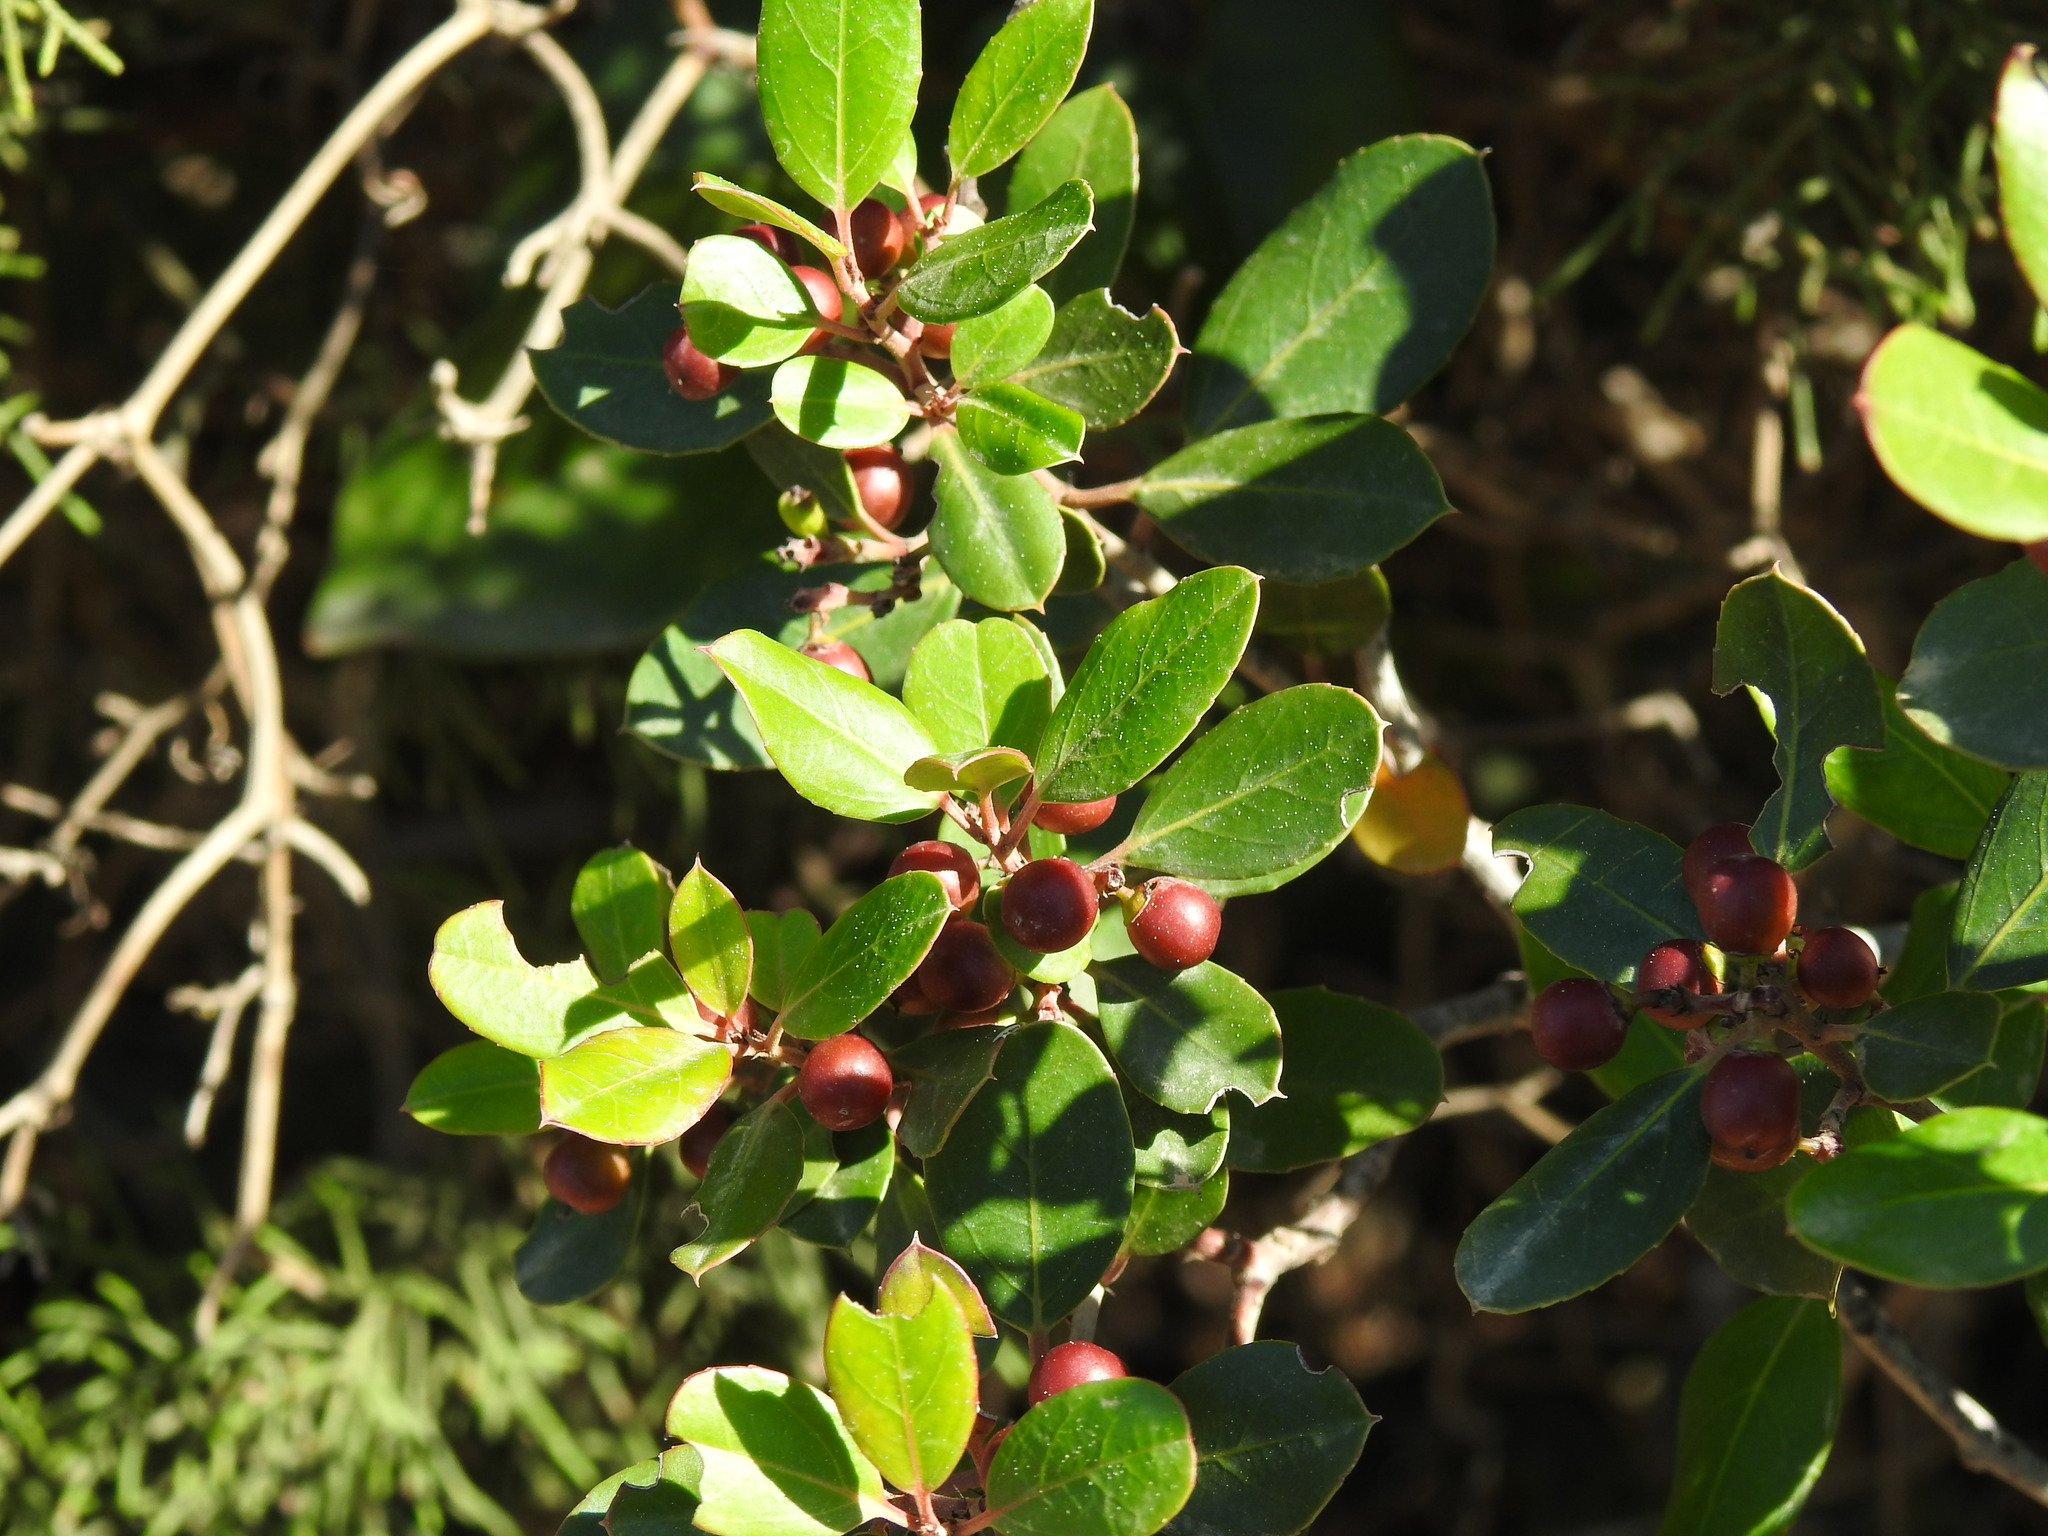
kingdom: Plantae
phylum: Tracheophyta
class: Magnoliopsida
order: Rosales
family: Rhamnaceae
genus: Rhamnus
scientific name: Rhamnus alaternus
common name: Mediterranean buckthorn
